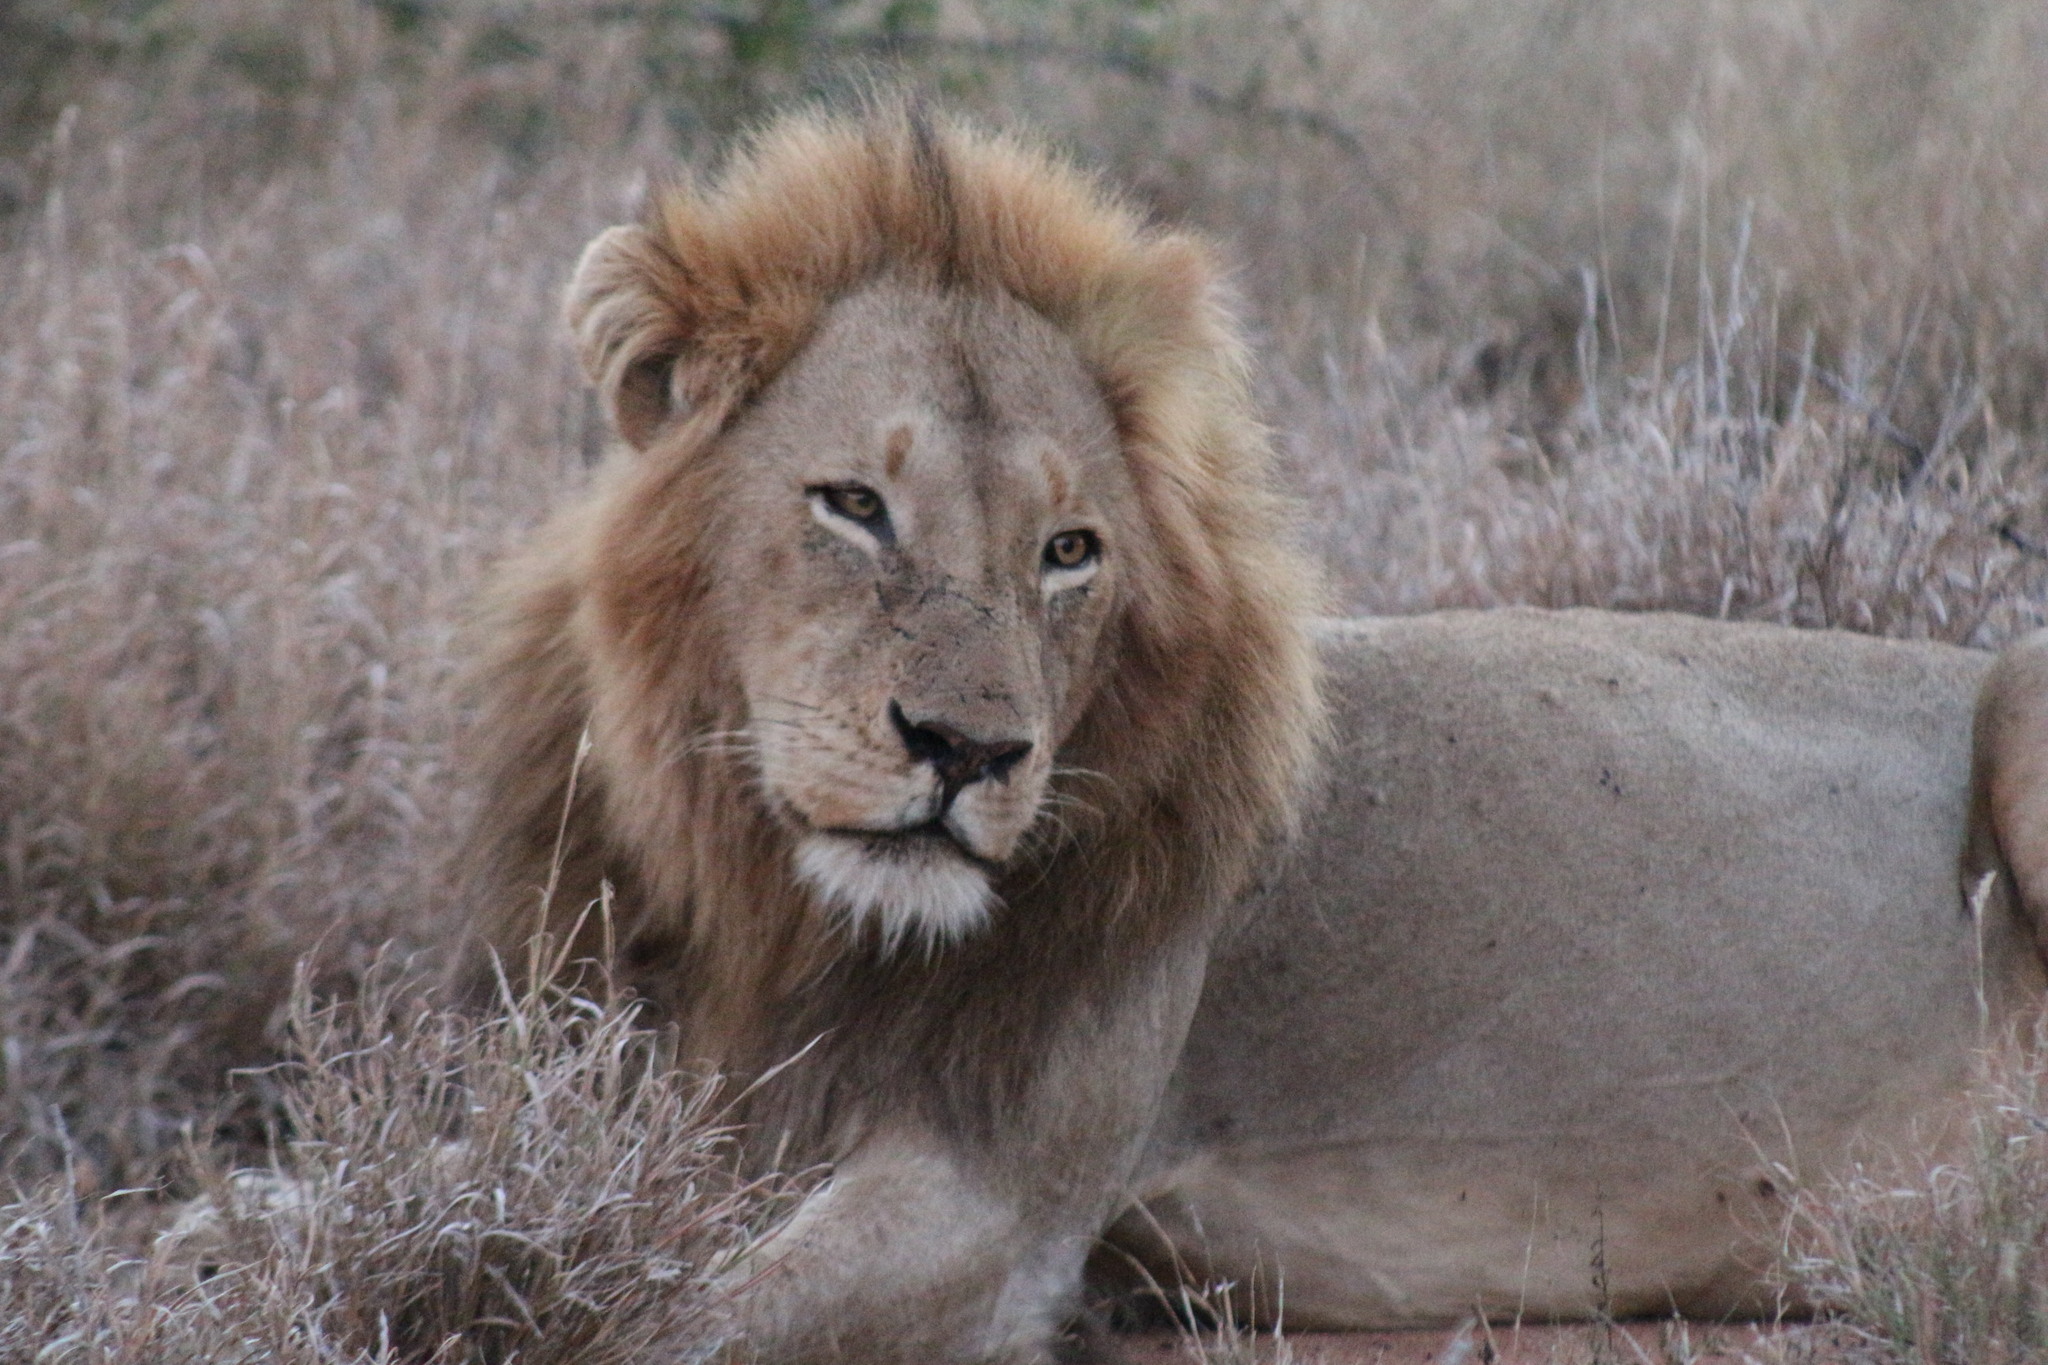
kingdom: Animalia
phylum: Chordata
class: Mammalia
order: Carnivora
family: Felidae
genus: Panthera
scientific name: Panthera leo
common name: Lion
